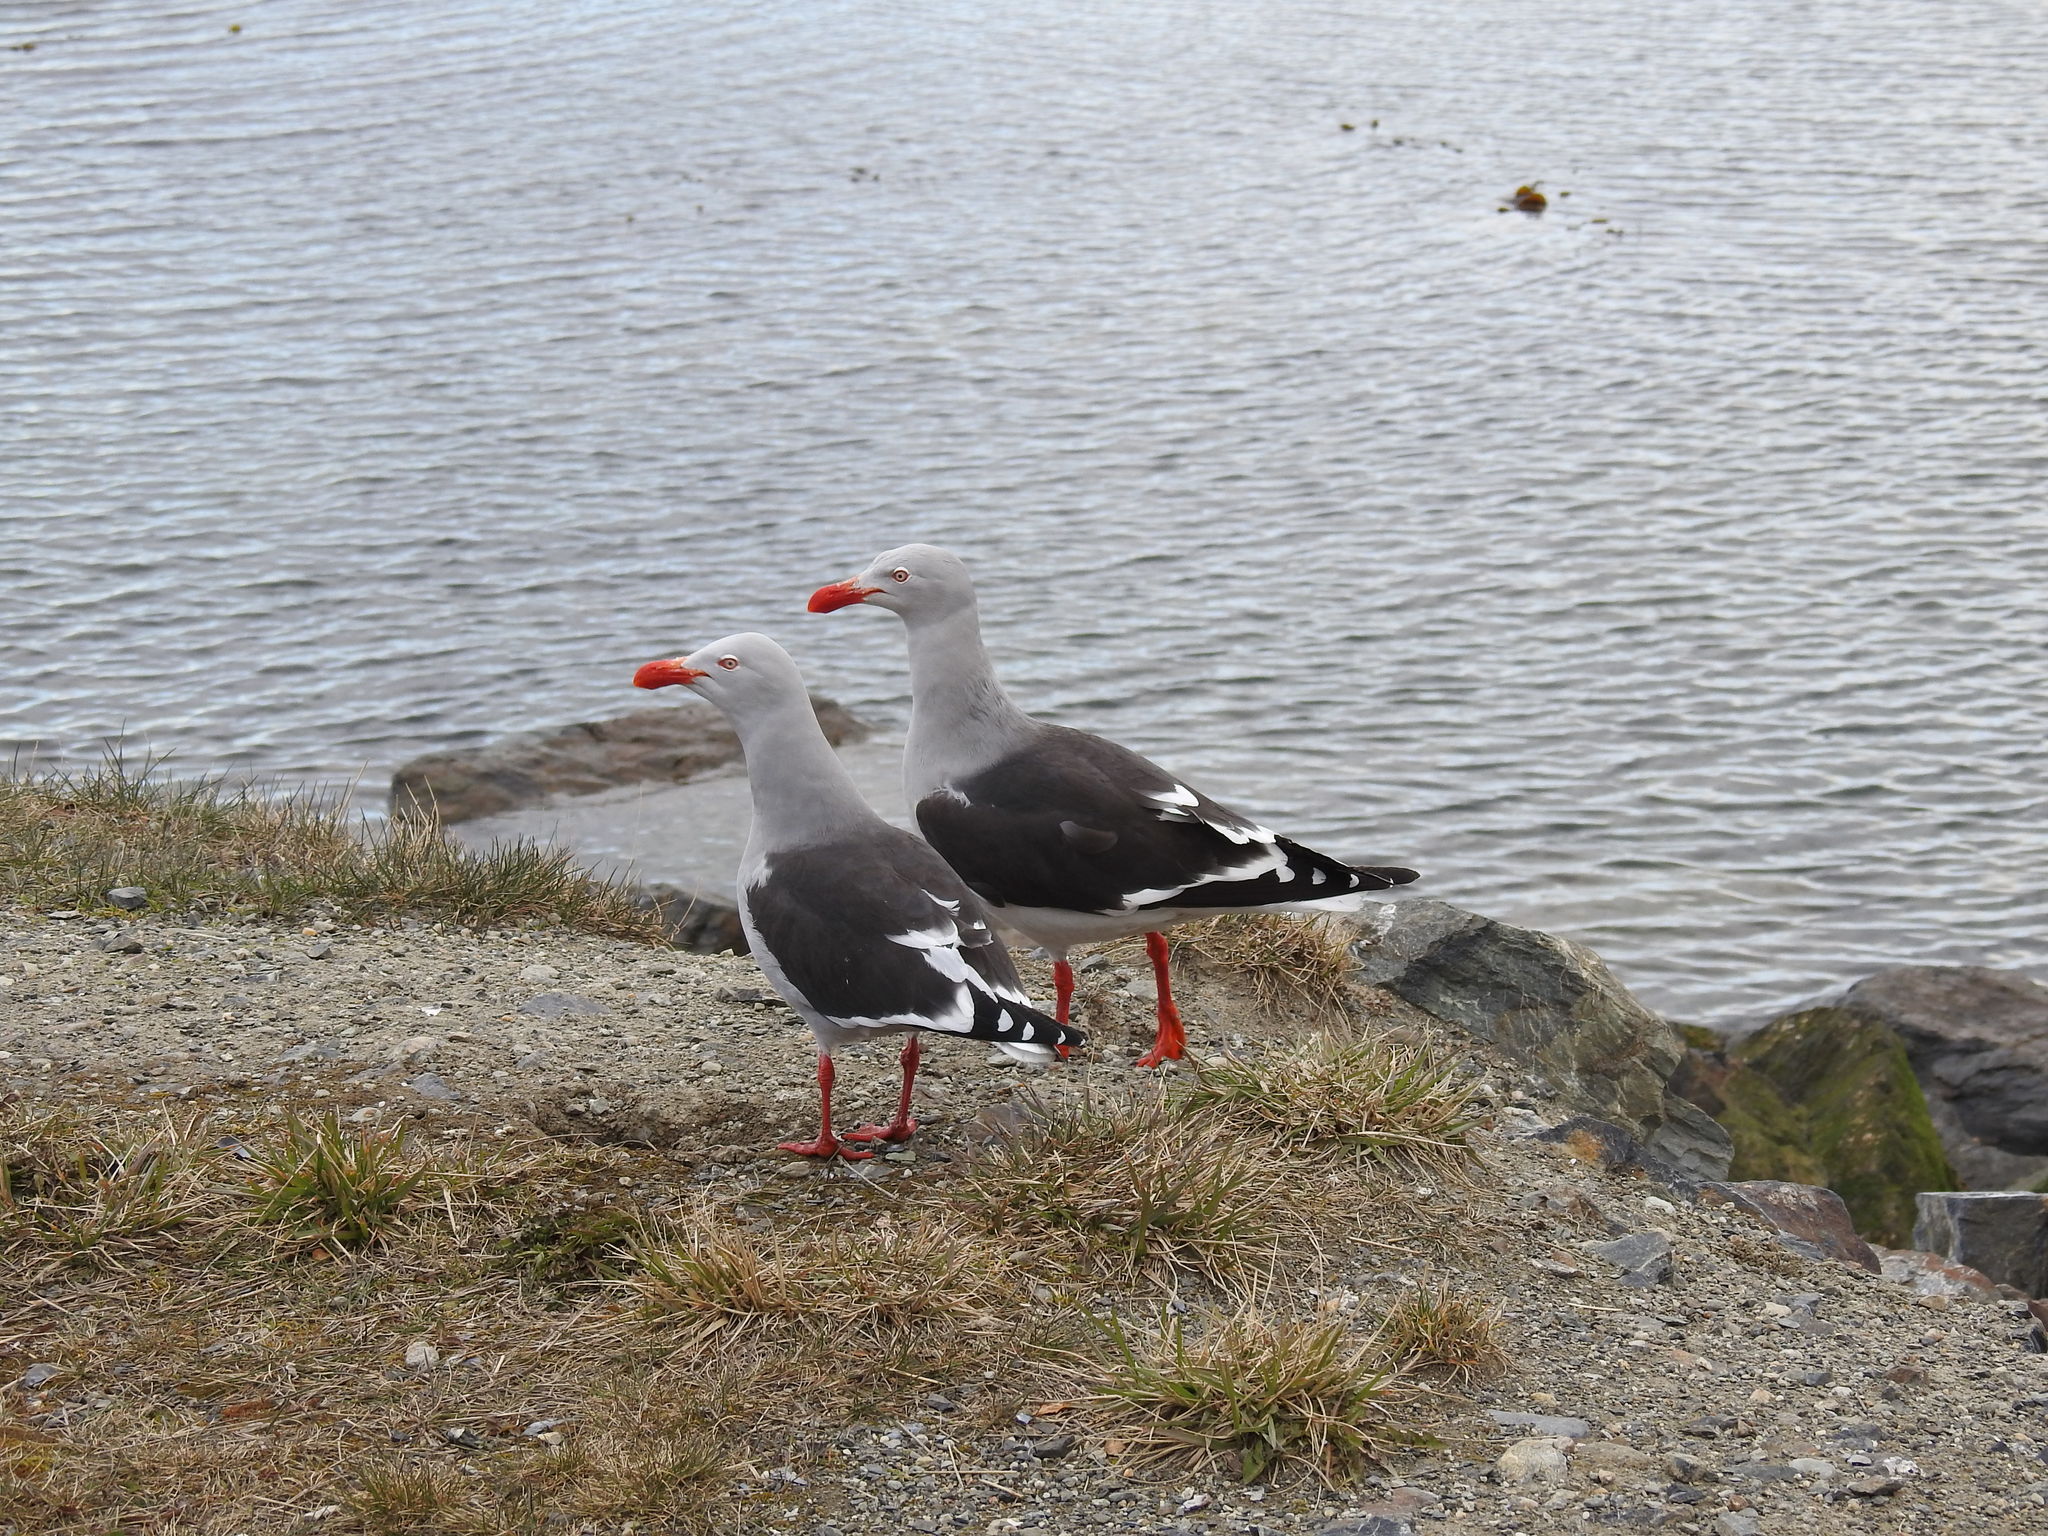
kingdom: Animalia
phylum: Chordata
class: Aves
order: Charadriiformes
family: Laridae
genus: Leucophaeus
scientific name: Leucophaeus scoresbii
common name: Dolphin gull
